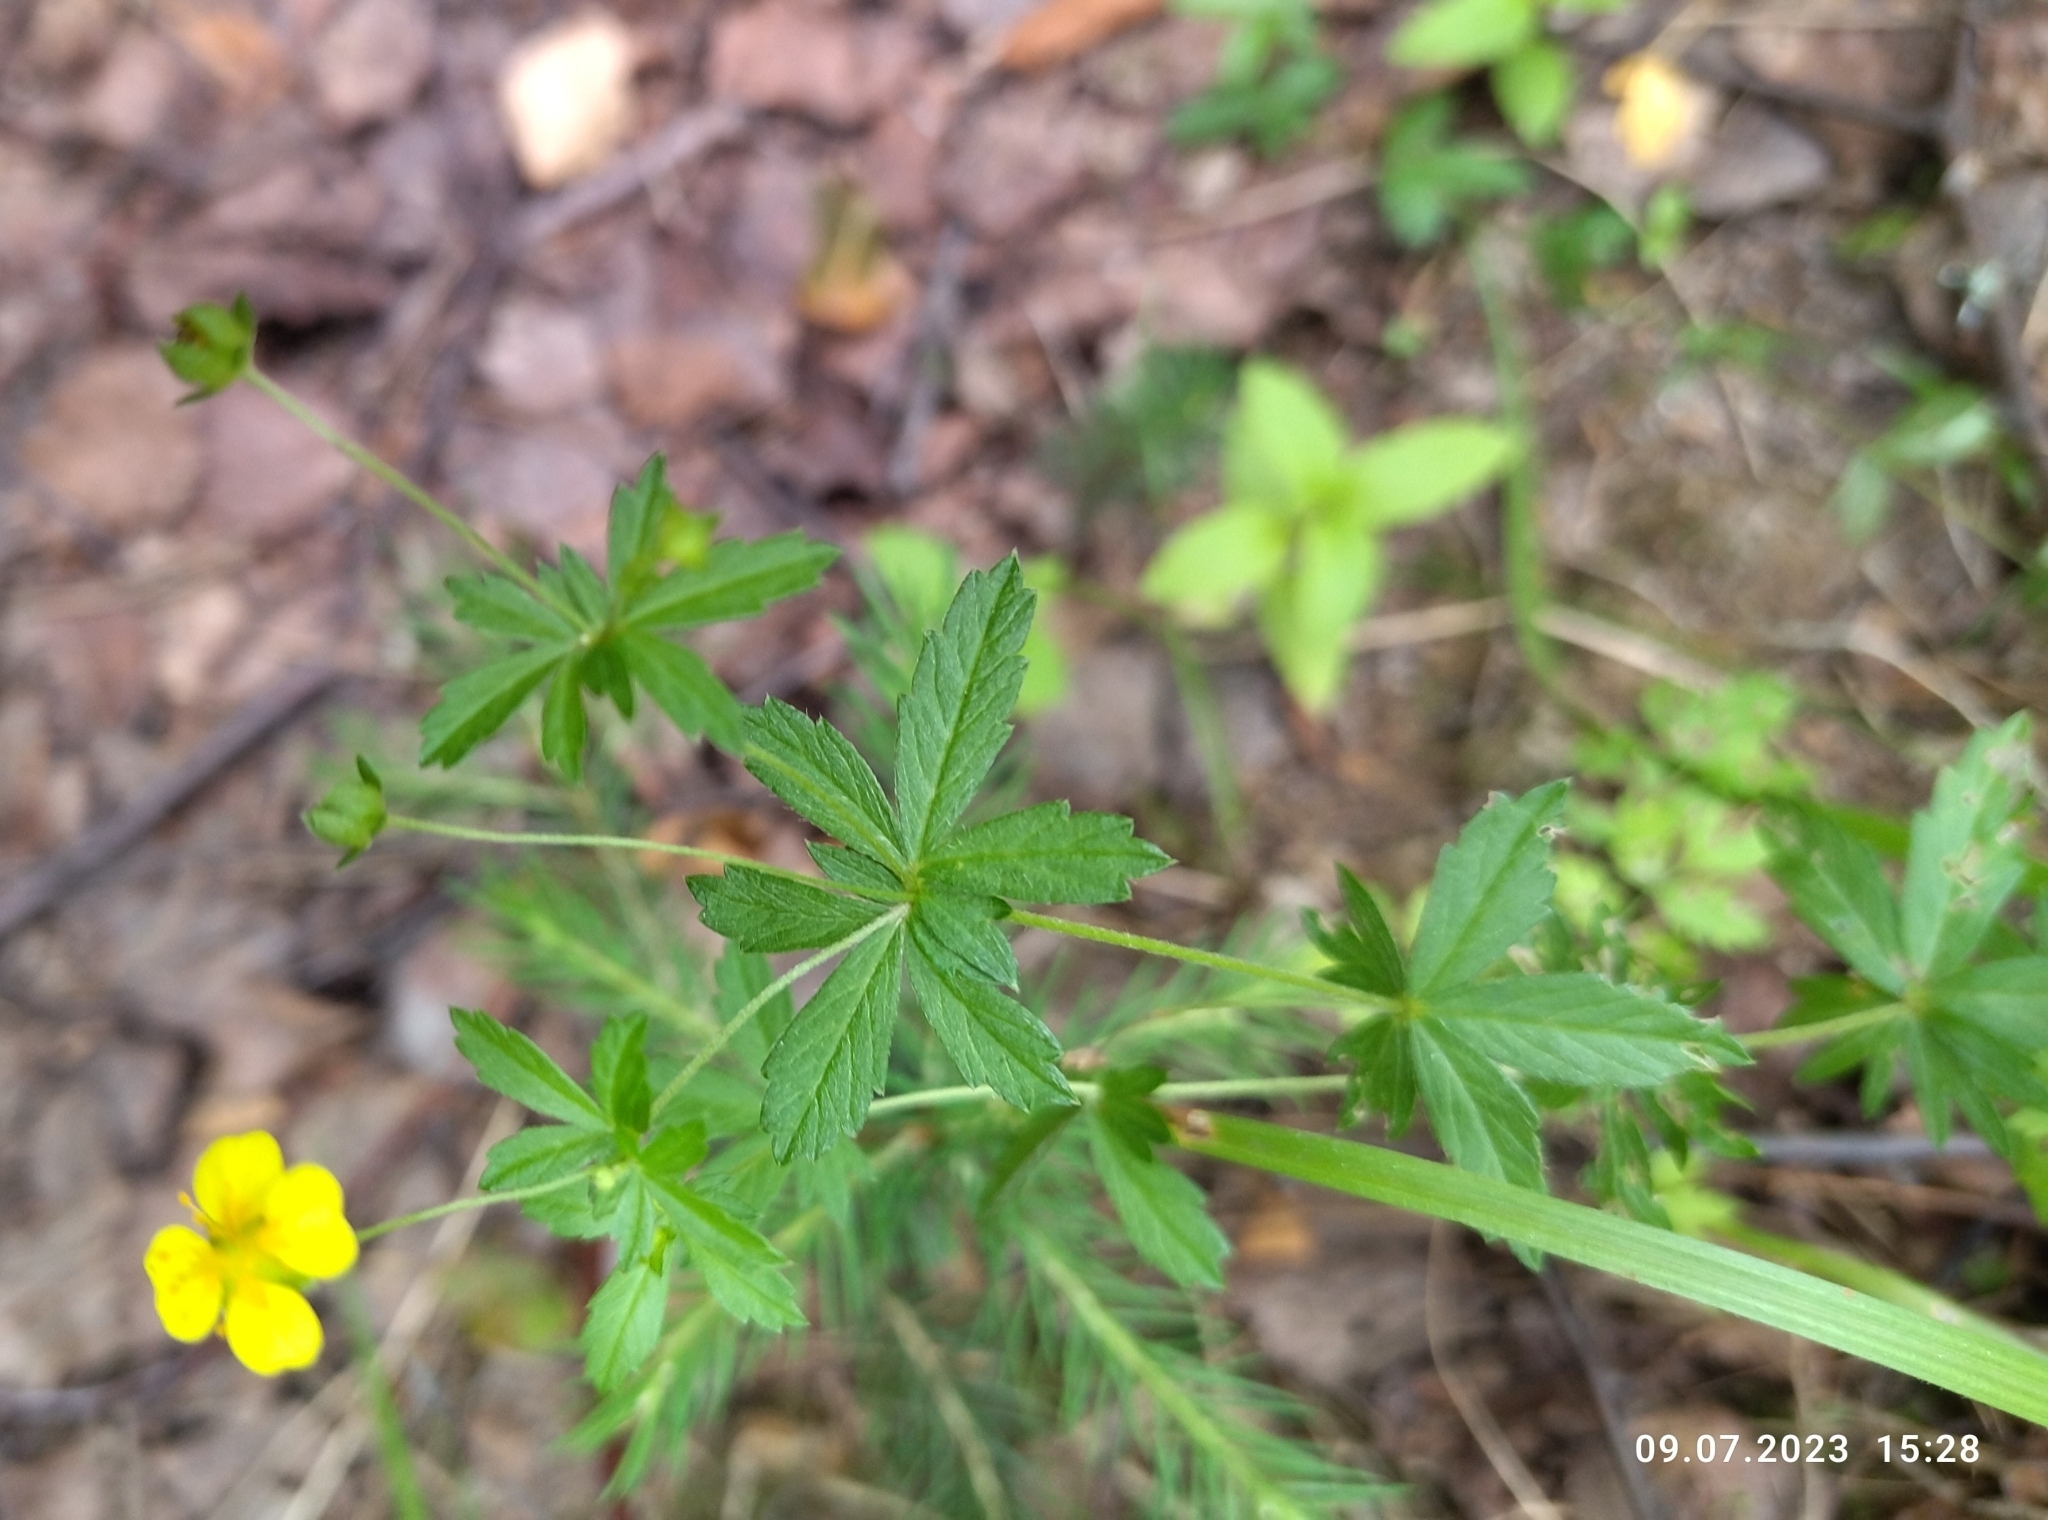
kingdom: Plantae
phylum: Tracheophyta
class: Magnoliopsida
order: Rosales
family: Rosaceae
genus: Potentilla
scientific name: Potentilla erecta
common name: Tormentil
